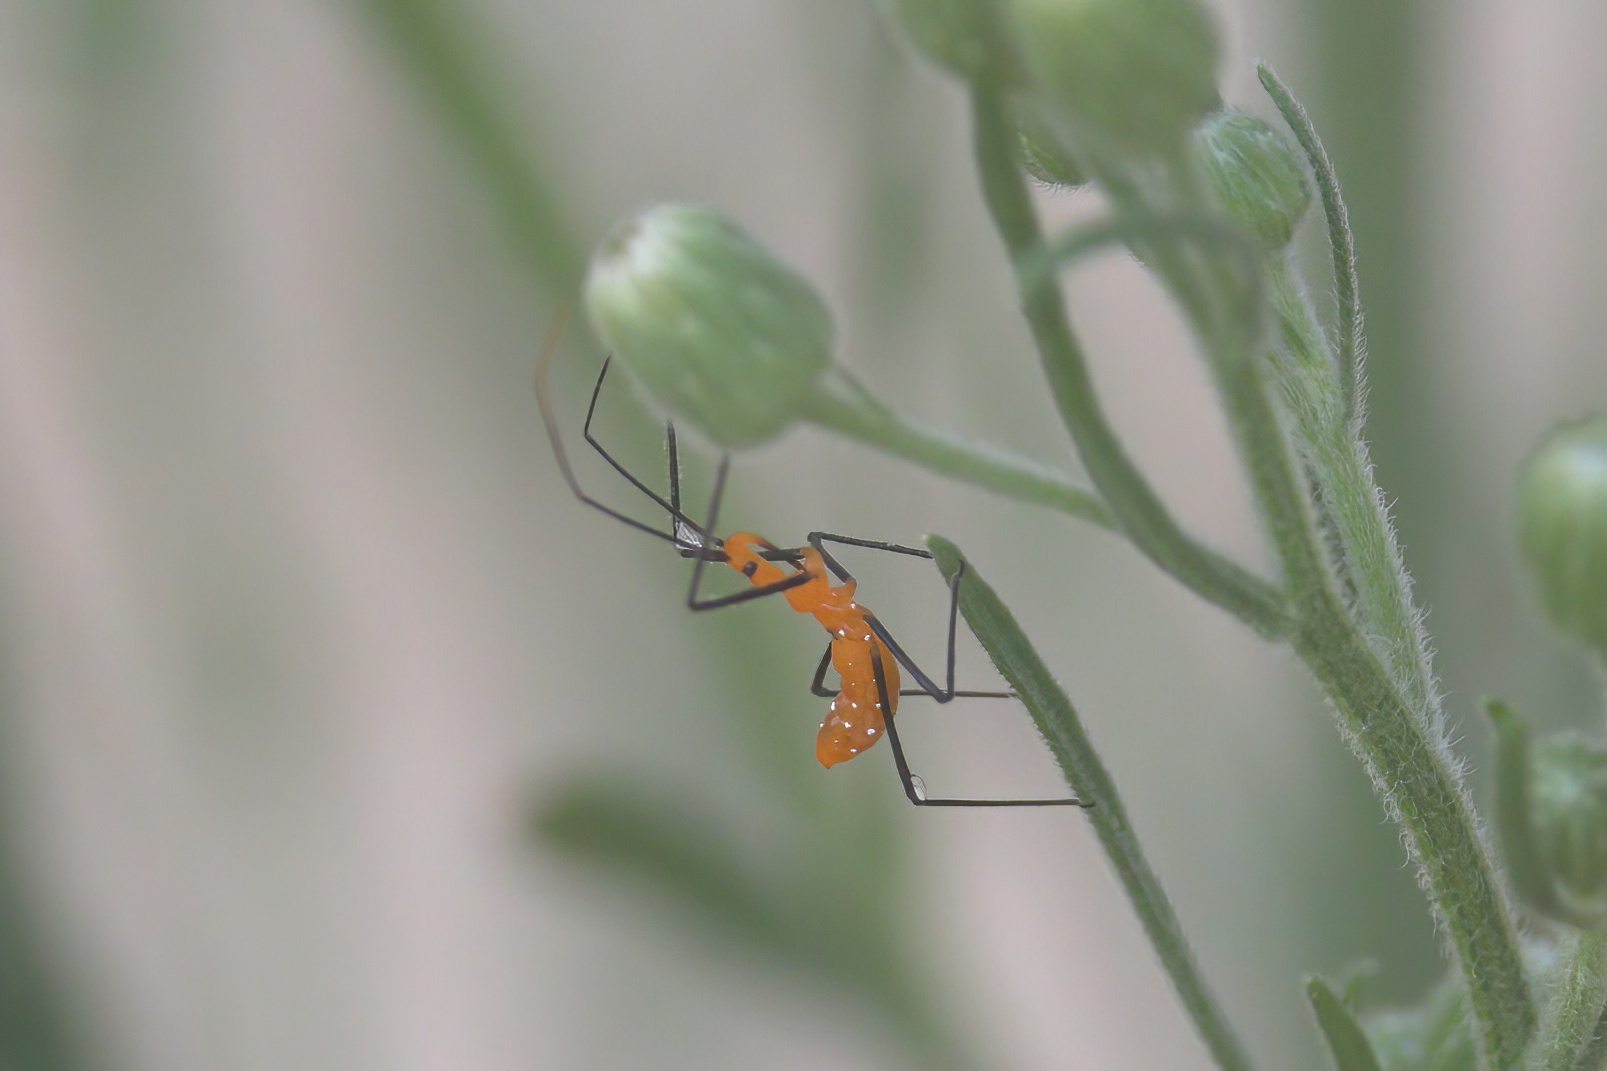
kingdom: Animalia
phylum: Arthropoda
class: Insecta
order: Hemiptera
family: Reduviidae
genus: Zelus
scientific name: Zelus longipes
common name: Milkweed assassin bug
